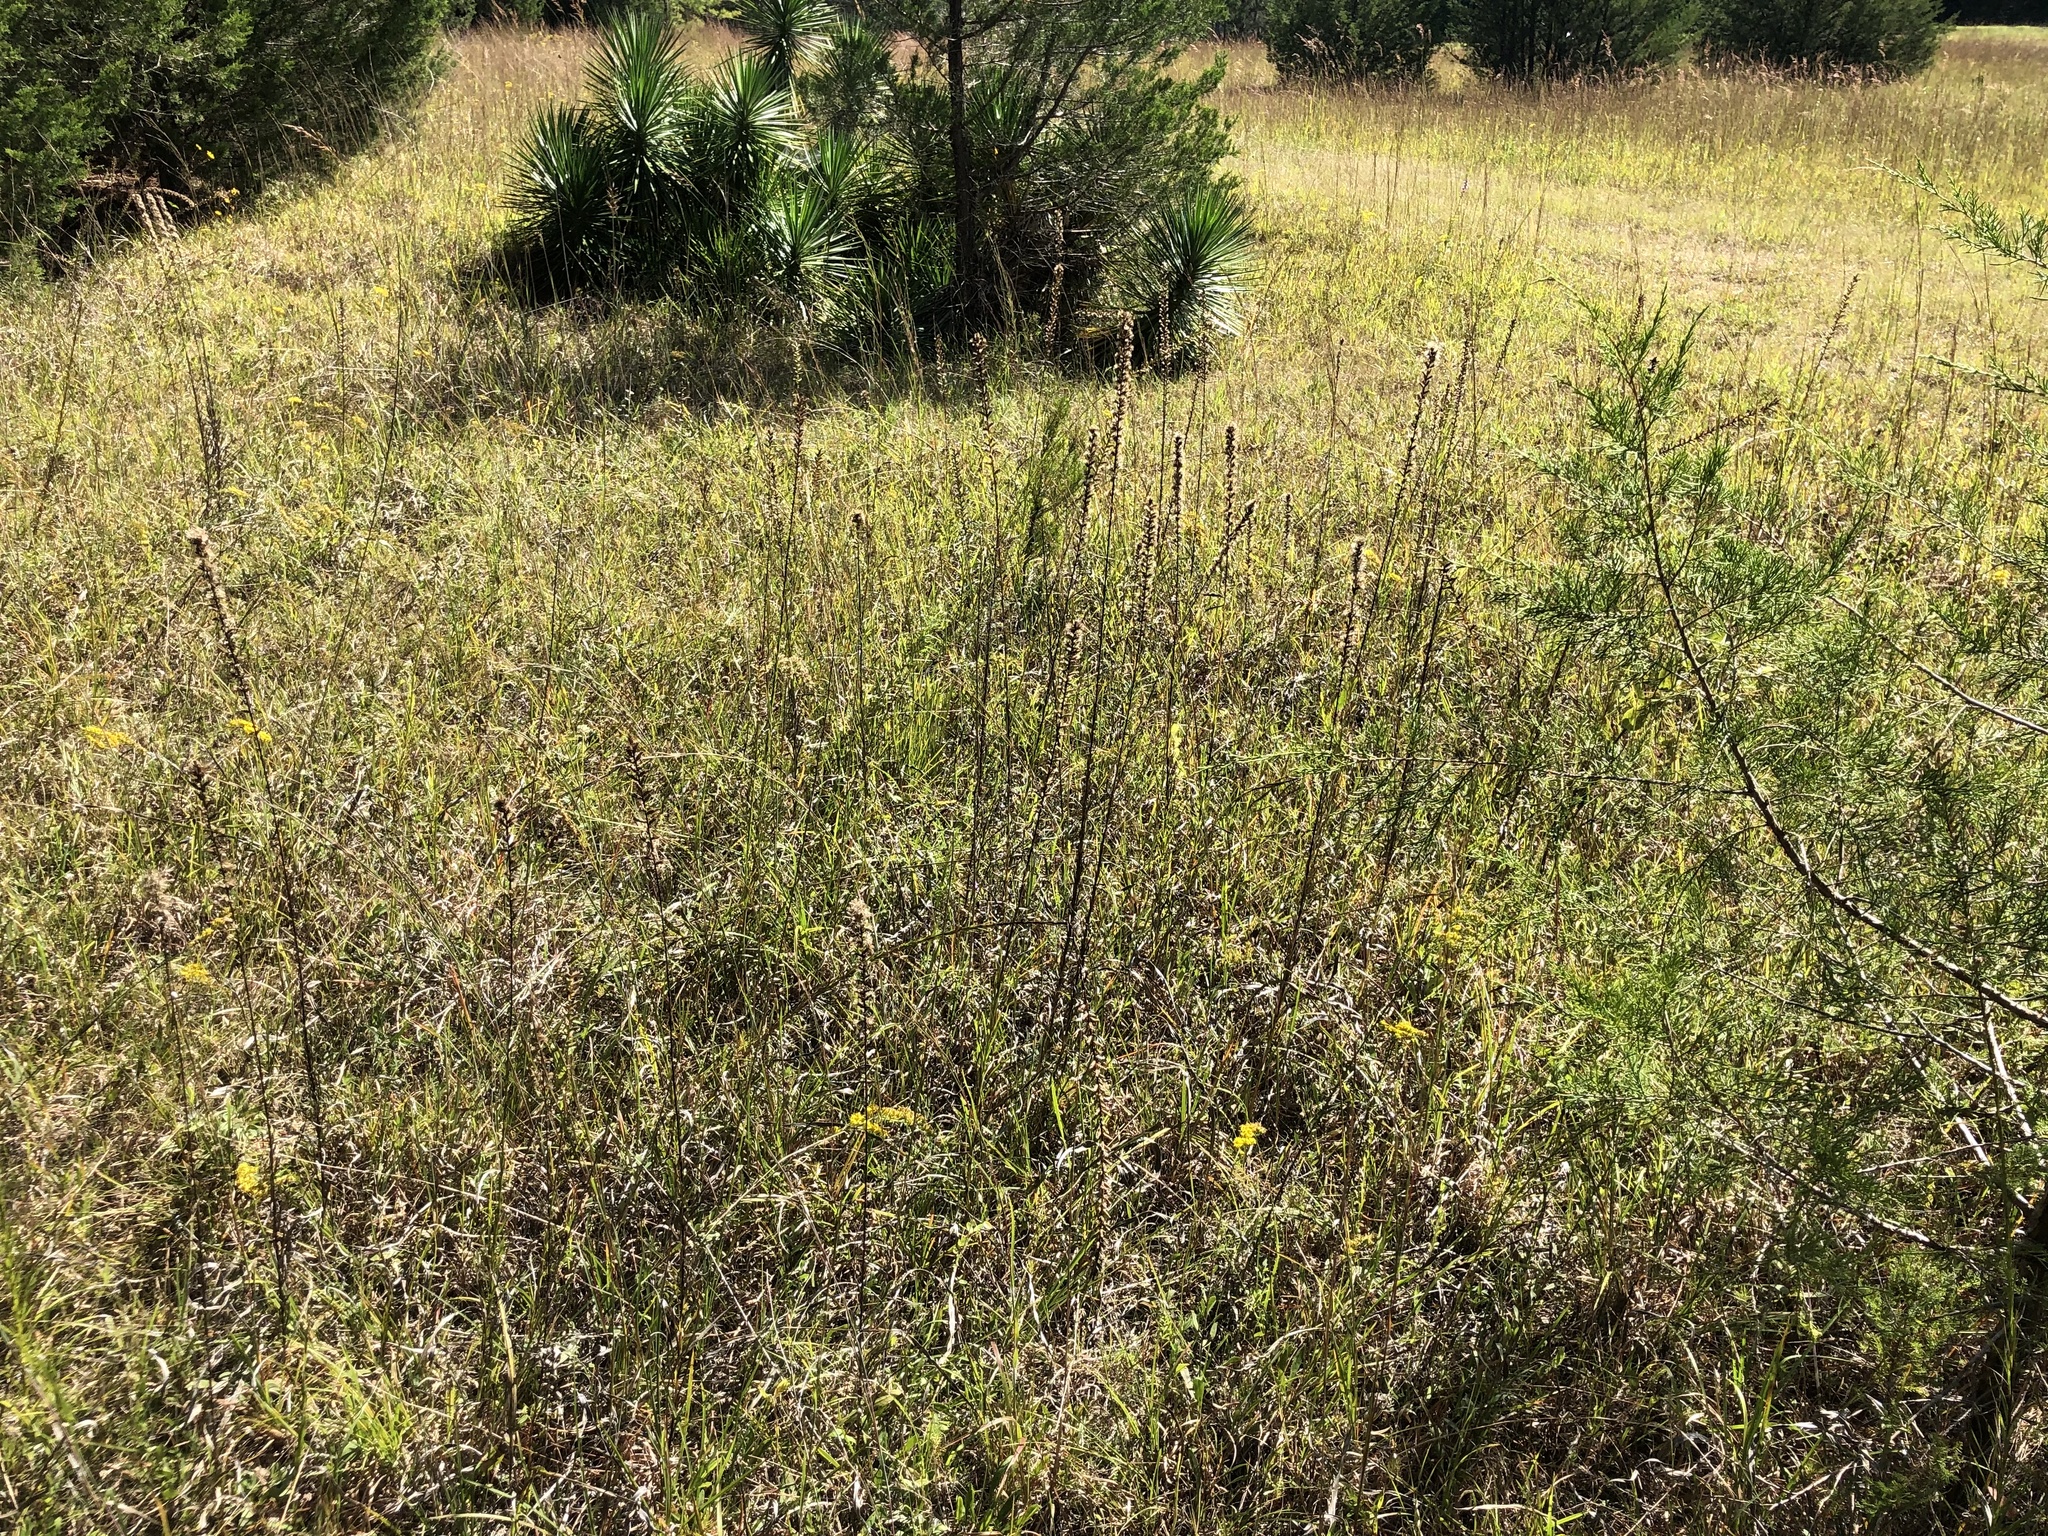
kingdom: Plantae
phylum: Tracheophyta
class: Magnoliopsida
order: Asterales
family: Asteraceae
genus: Liatris
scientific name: Liatris spicata
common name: Florist gayfeather
